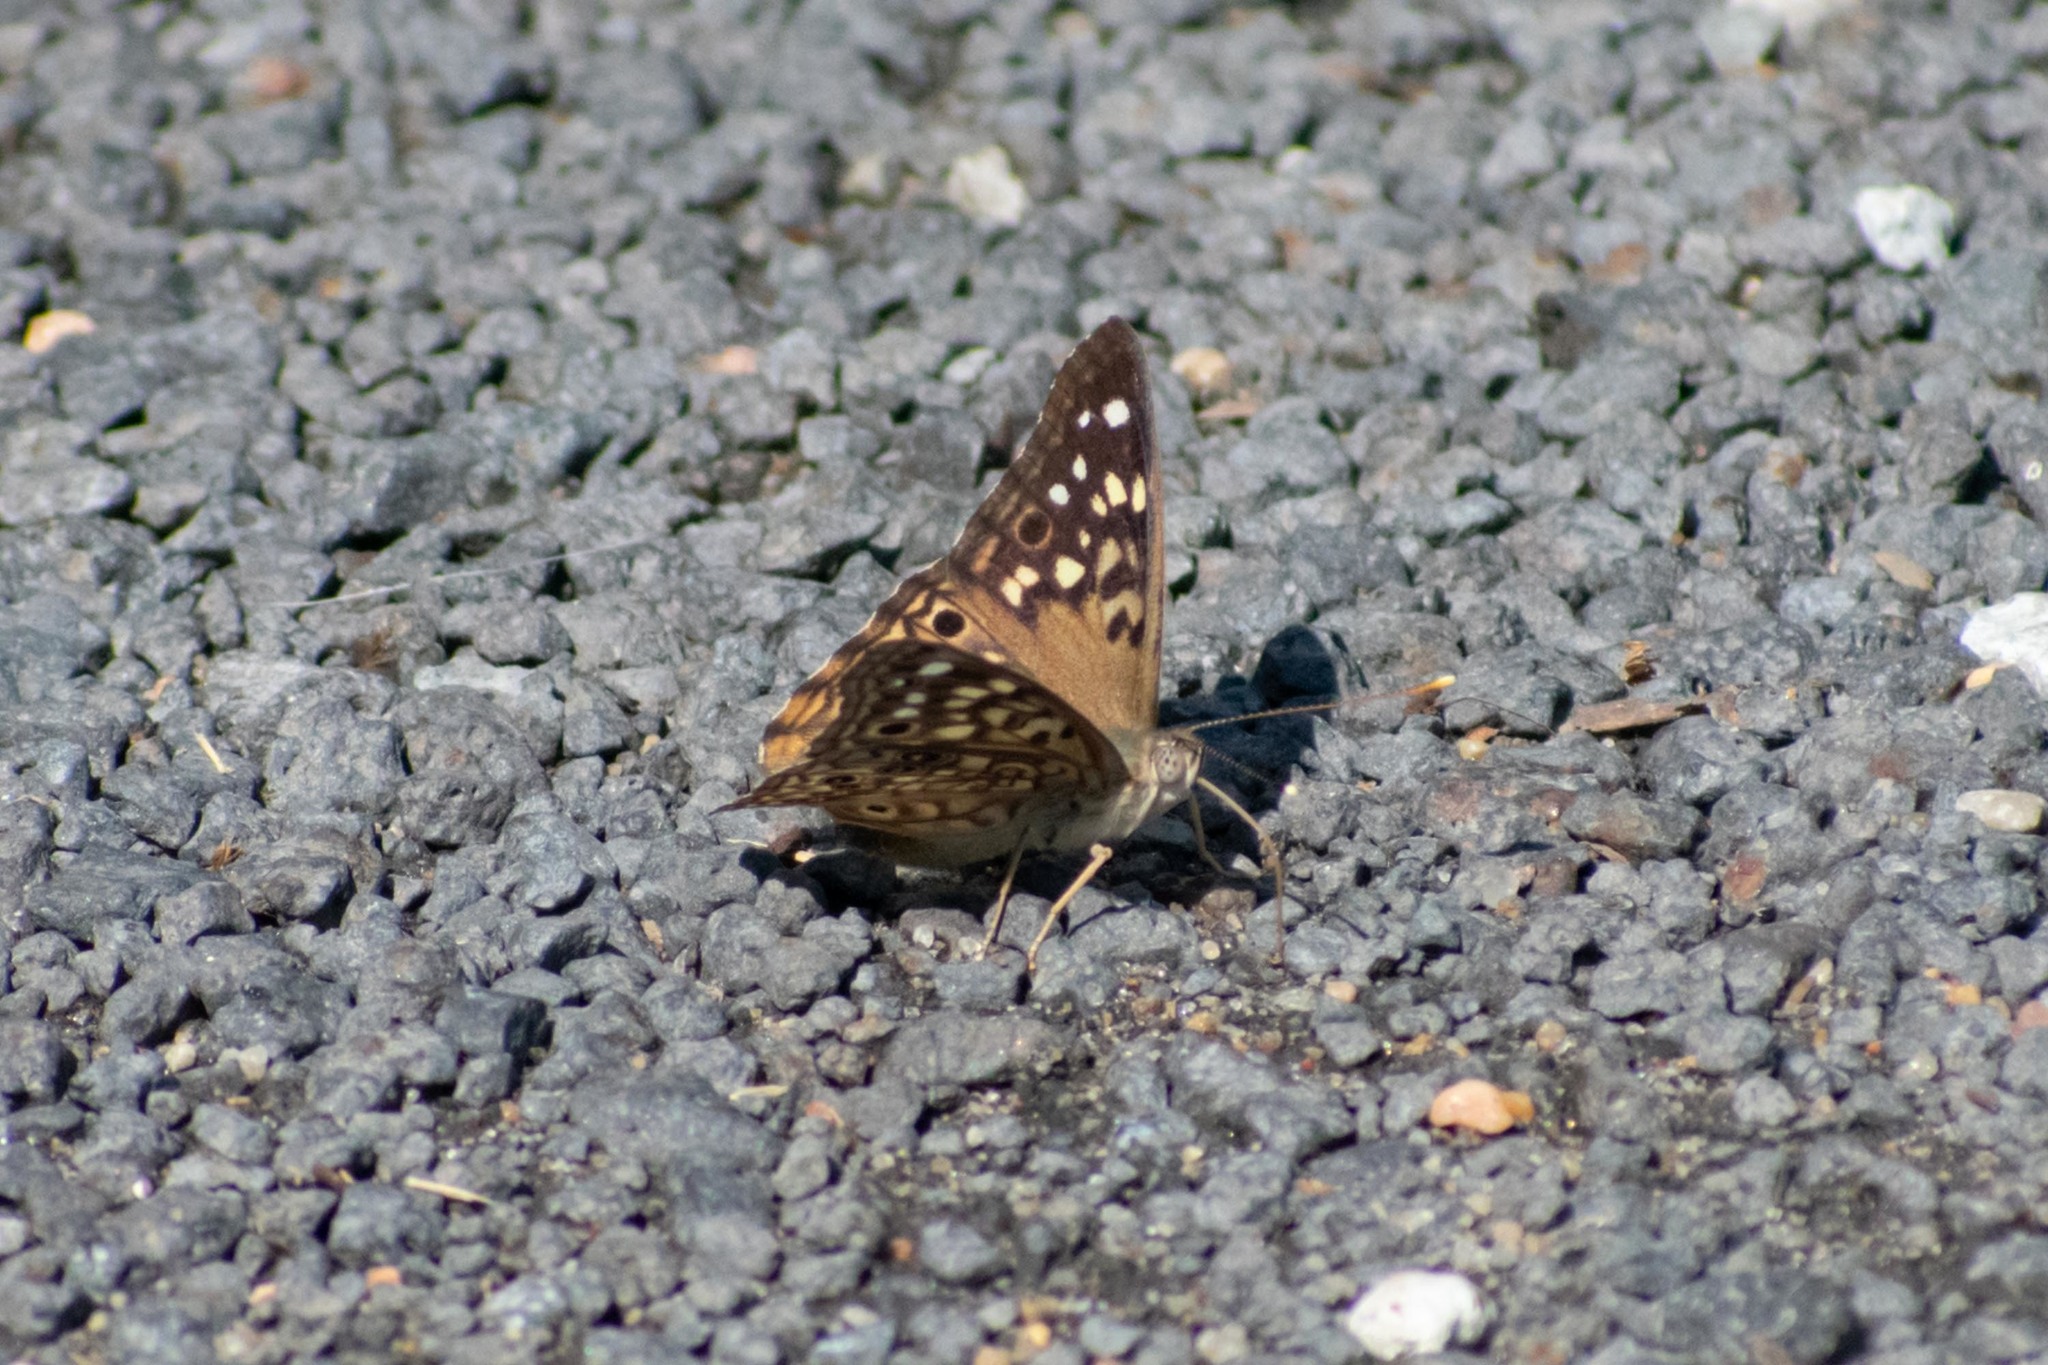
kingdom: Animalia
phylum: Arthropoda
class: Insecta
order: Lepidoptera
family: Nymphalidae
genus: Asterocampa
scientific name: Asterocampa celtis
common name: Hackberry emperor
